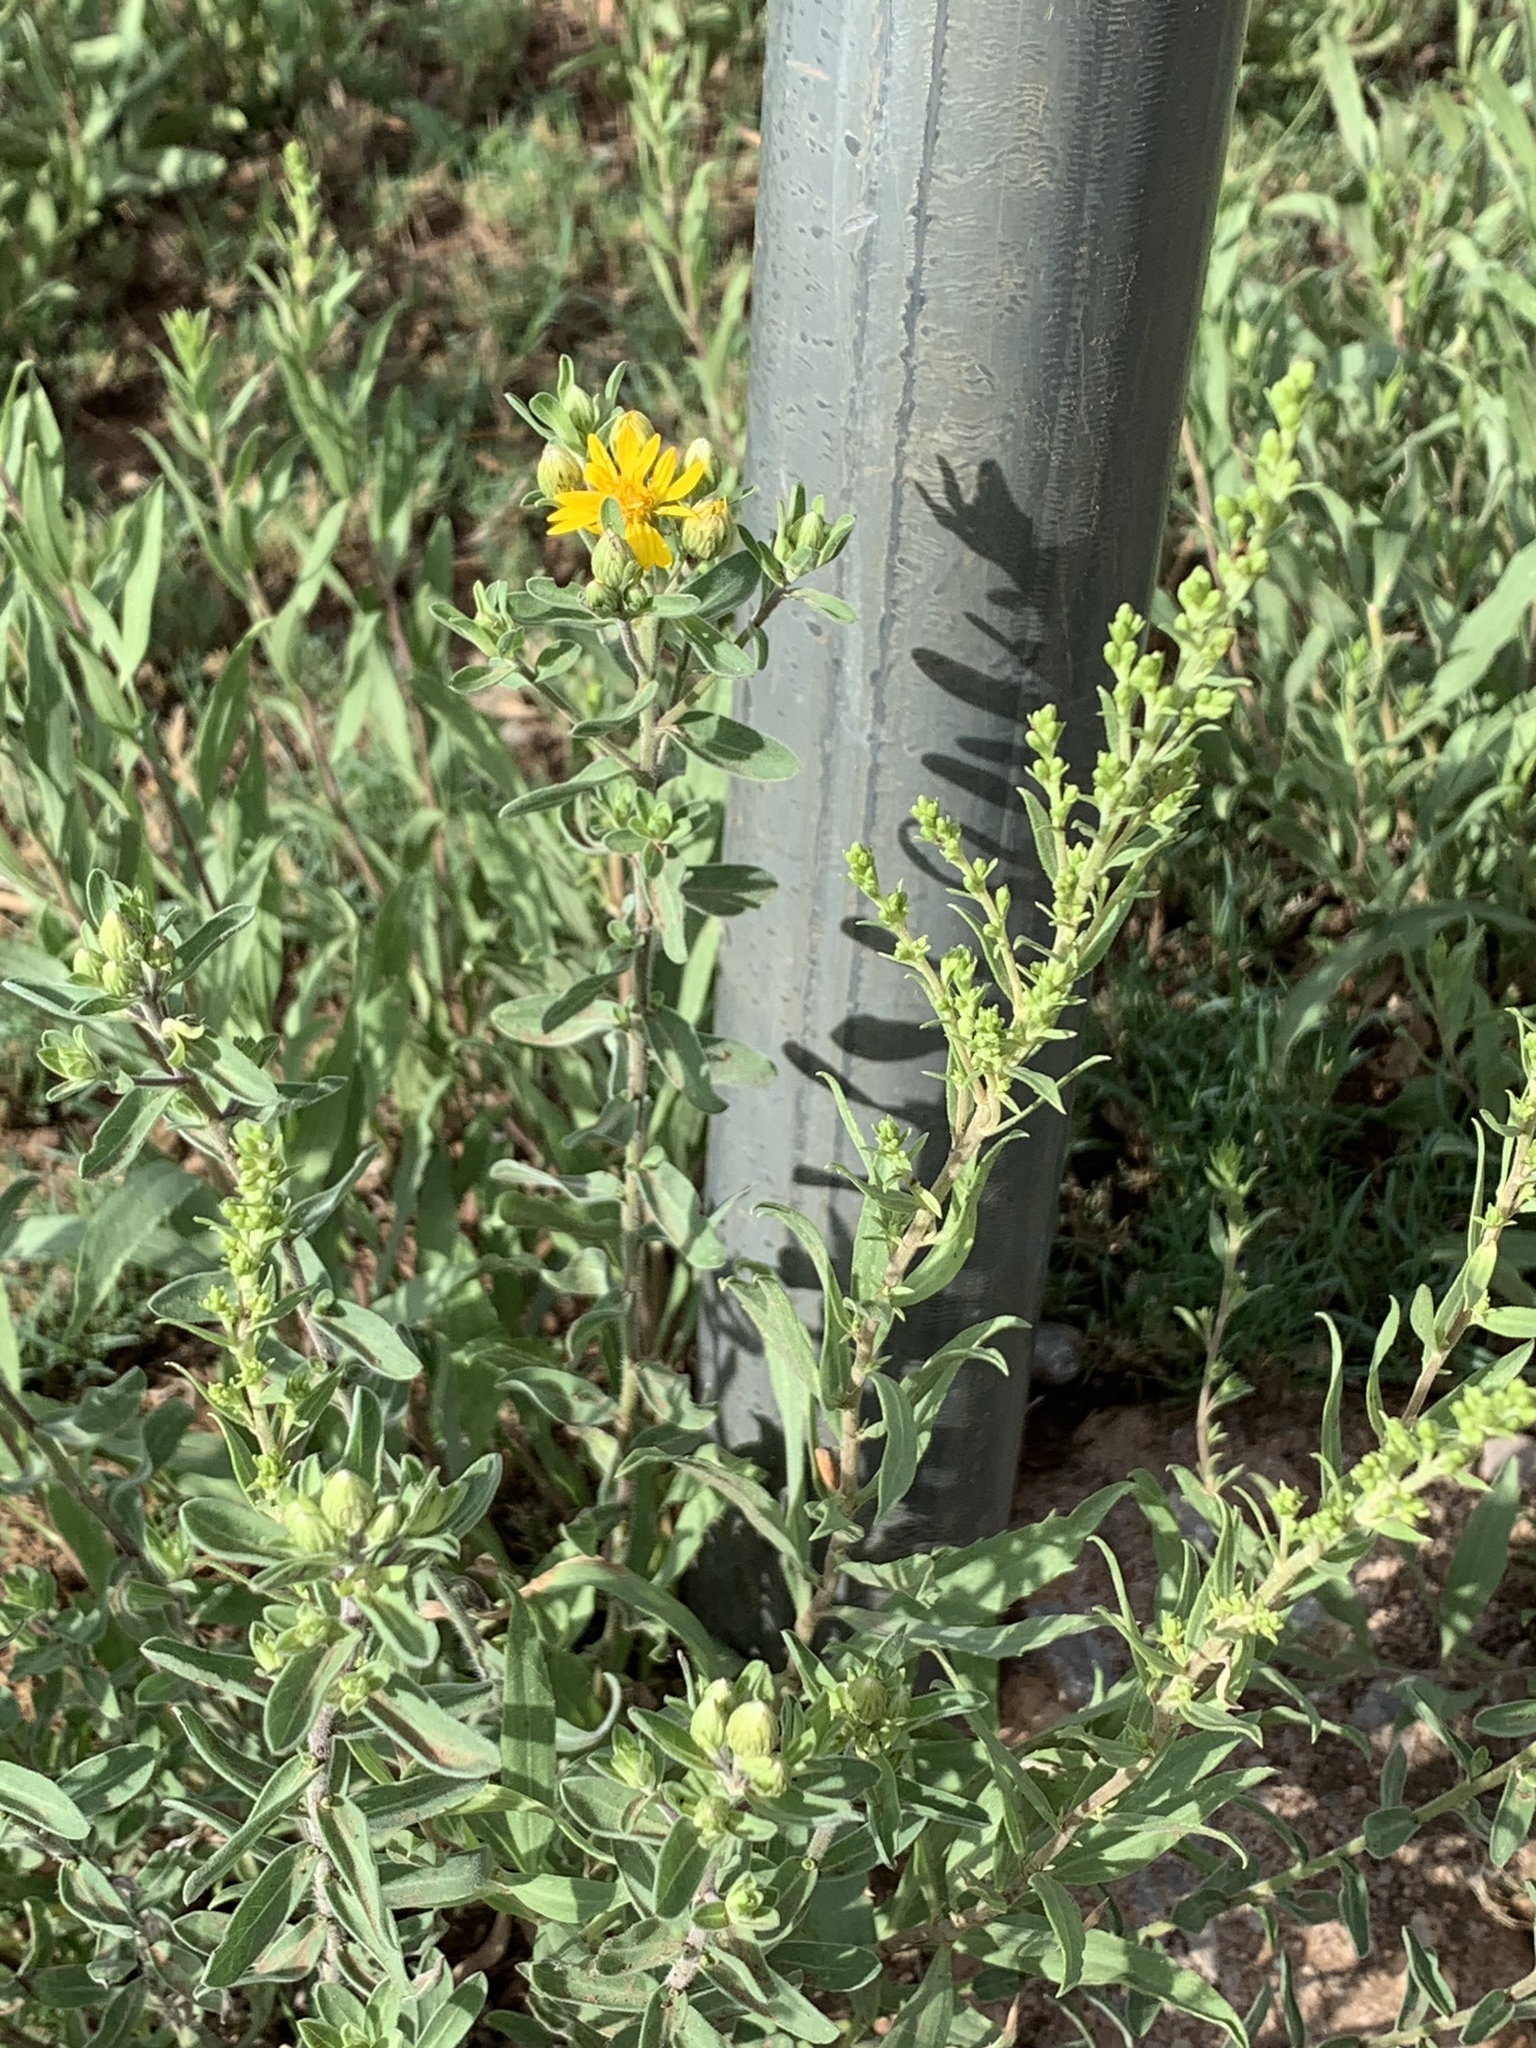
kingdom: Plantae
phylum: Tracheophyta
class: Magnoliopsida
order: Asterales
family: Asteraceae
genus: Heterotheca
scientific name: Heterotheca cryptocephala
